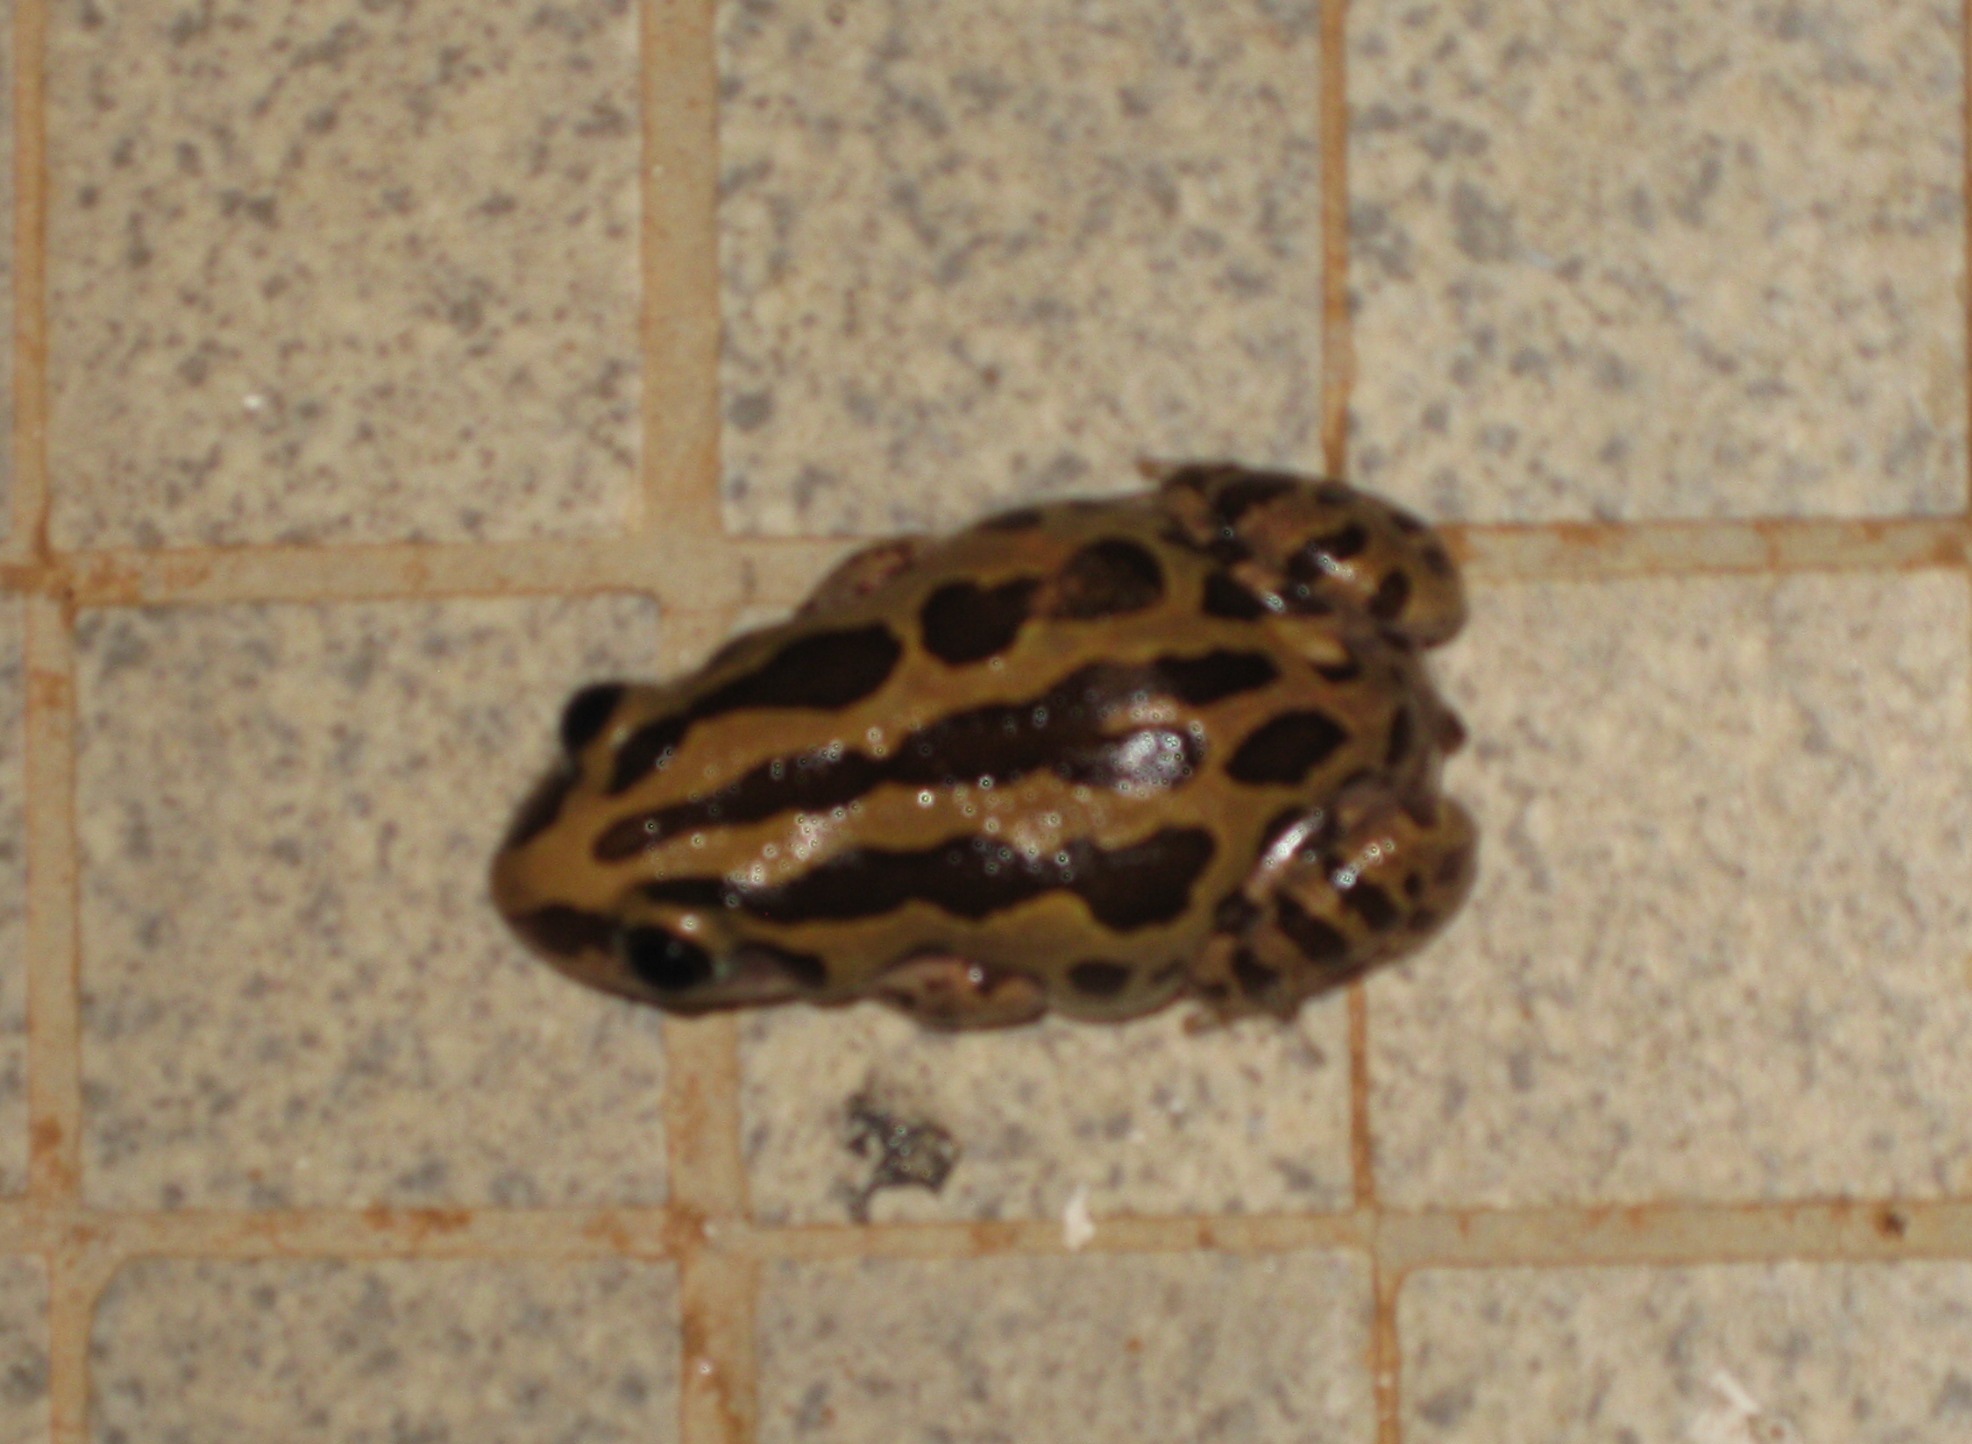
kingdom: Animalia
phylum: Chordata
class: Amphibia
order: Anura
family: Hyperoliidae
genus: Kassina
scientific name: Kassina senegalensis
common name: Senegal land frog
